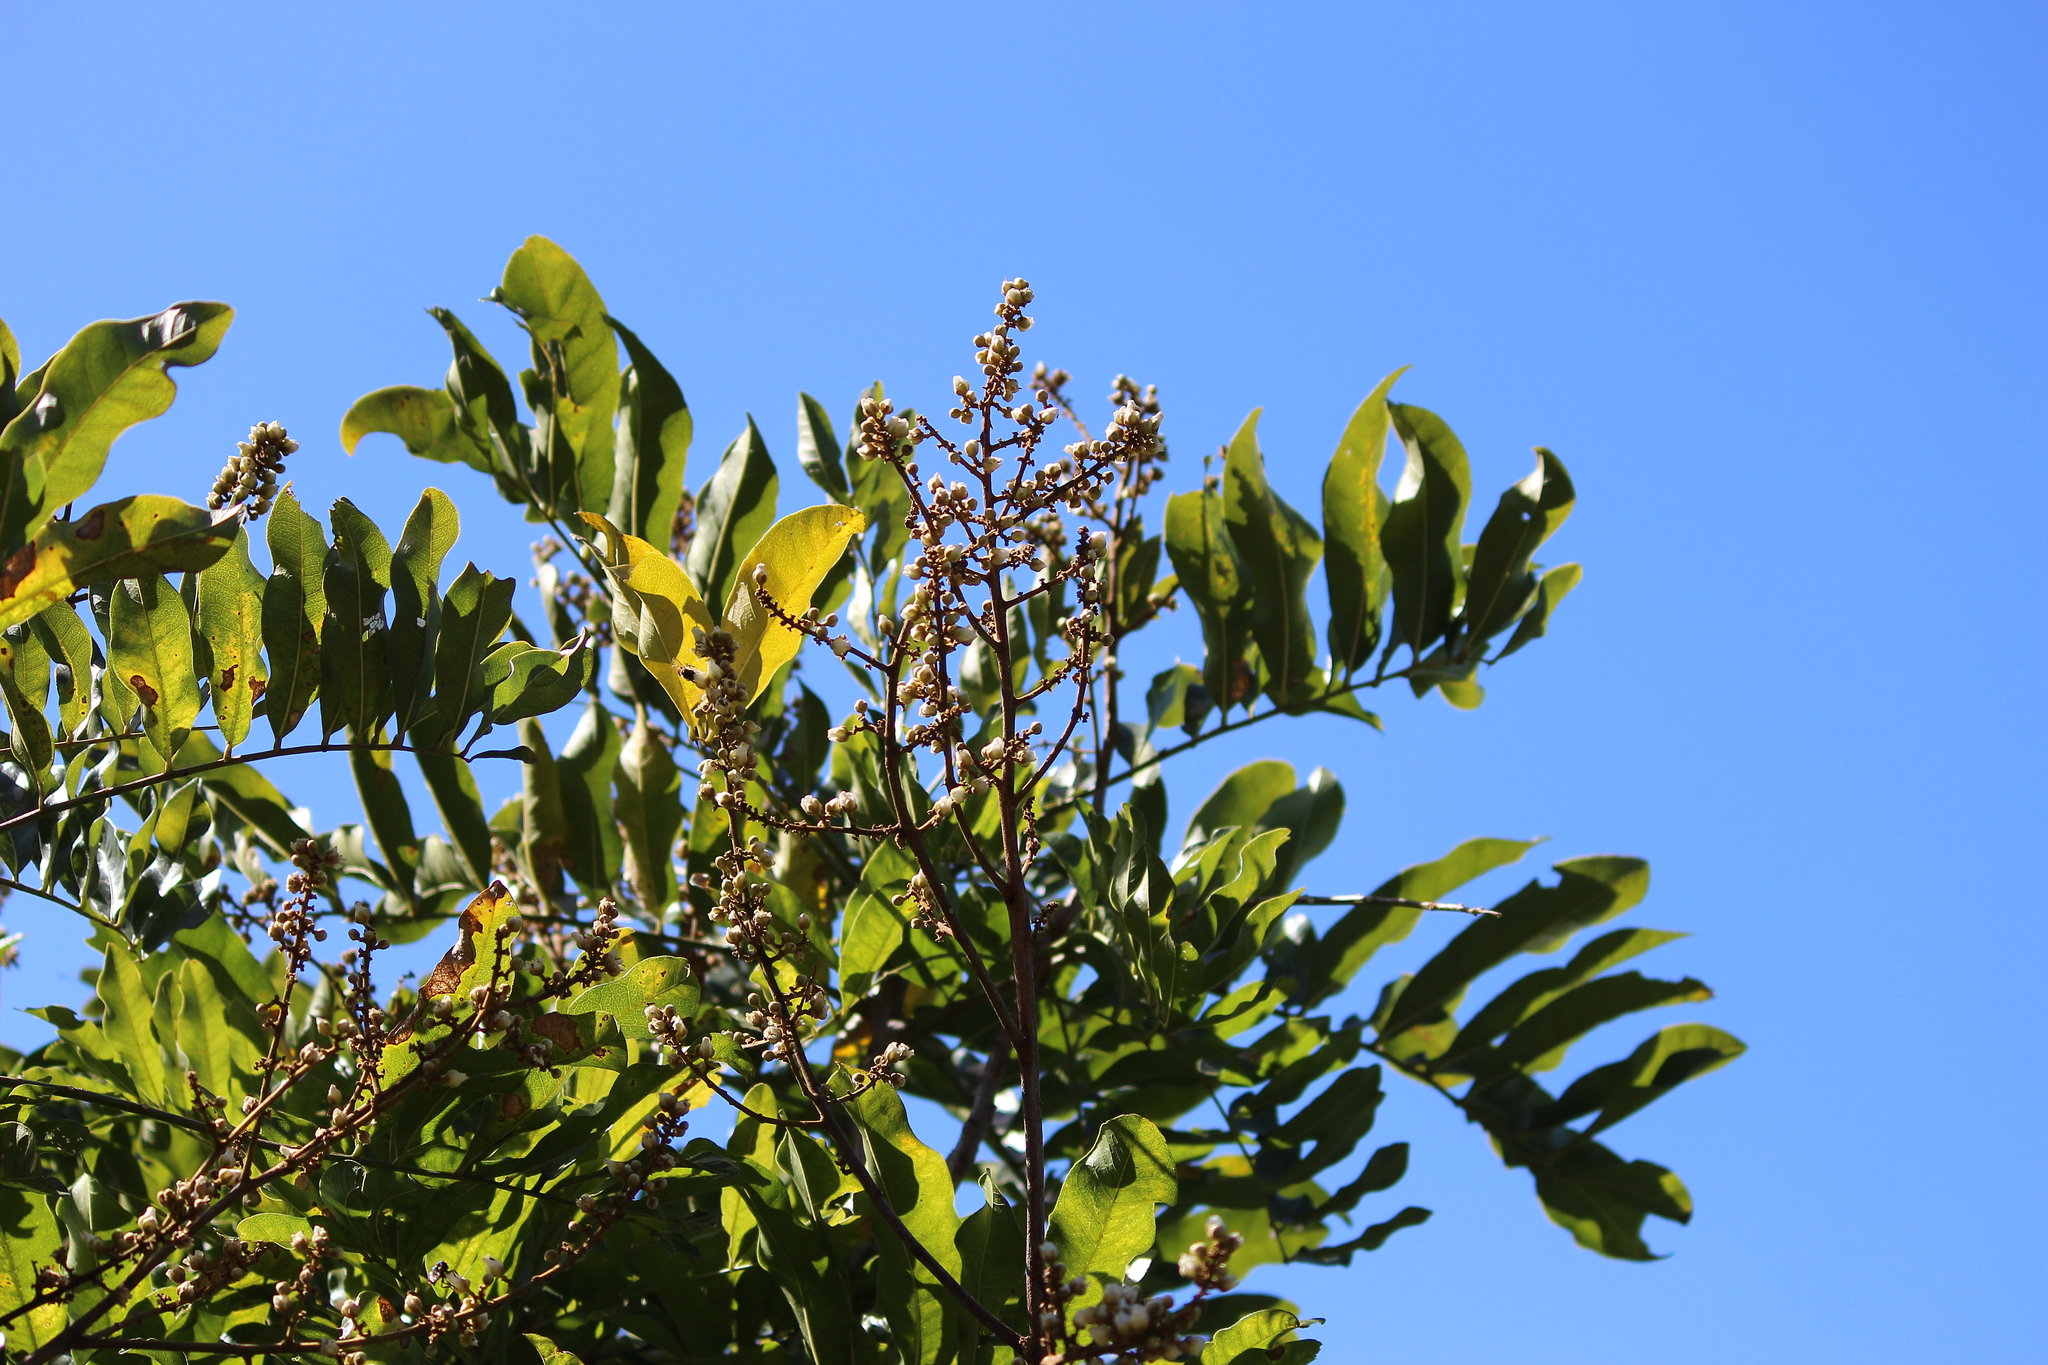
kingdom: Plantae
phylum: Tracheophyta
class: Magnoliopsida
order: Sapindales
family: Sapindaceae
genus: Deinbollia
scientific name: Deinbollia oblongifolia
